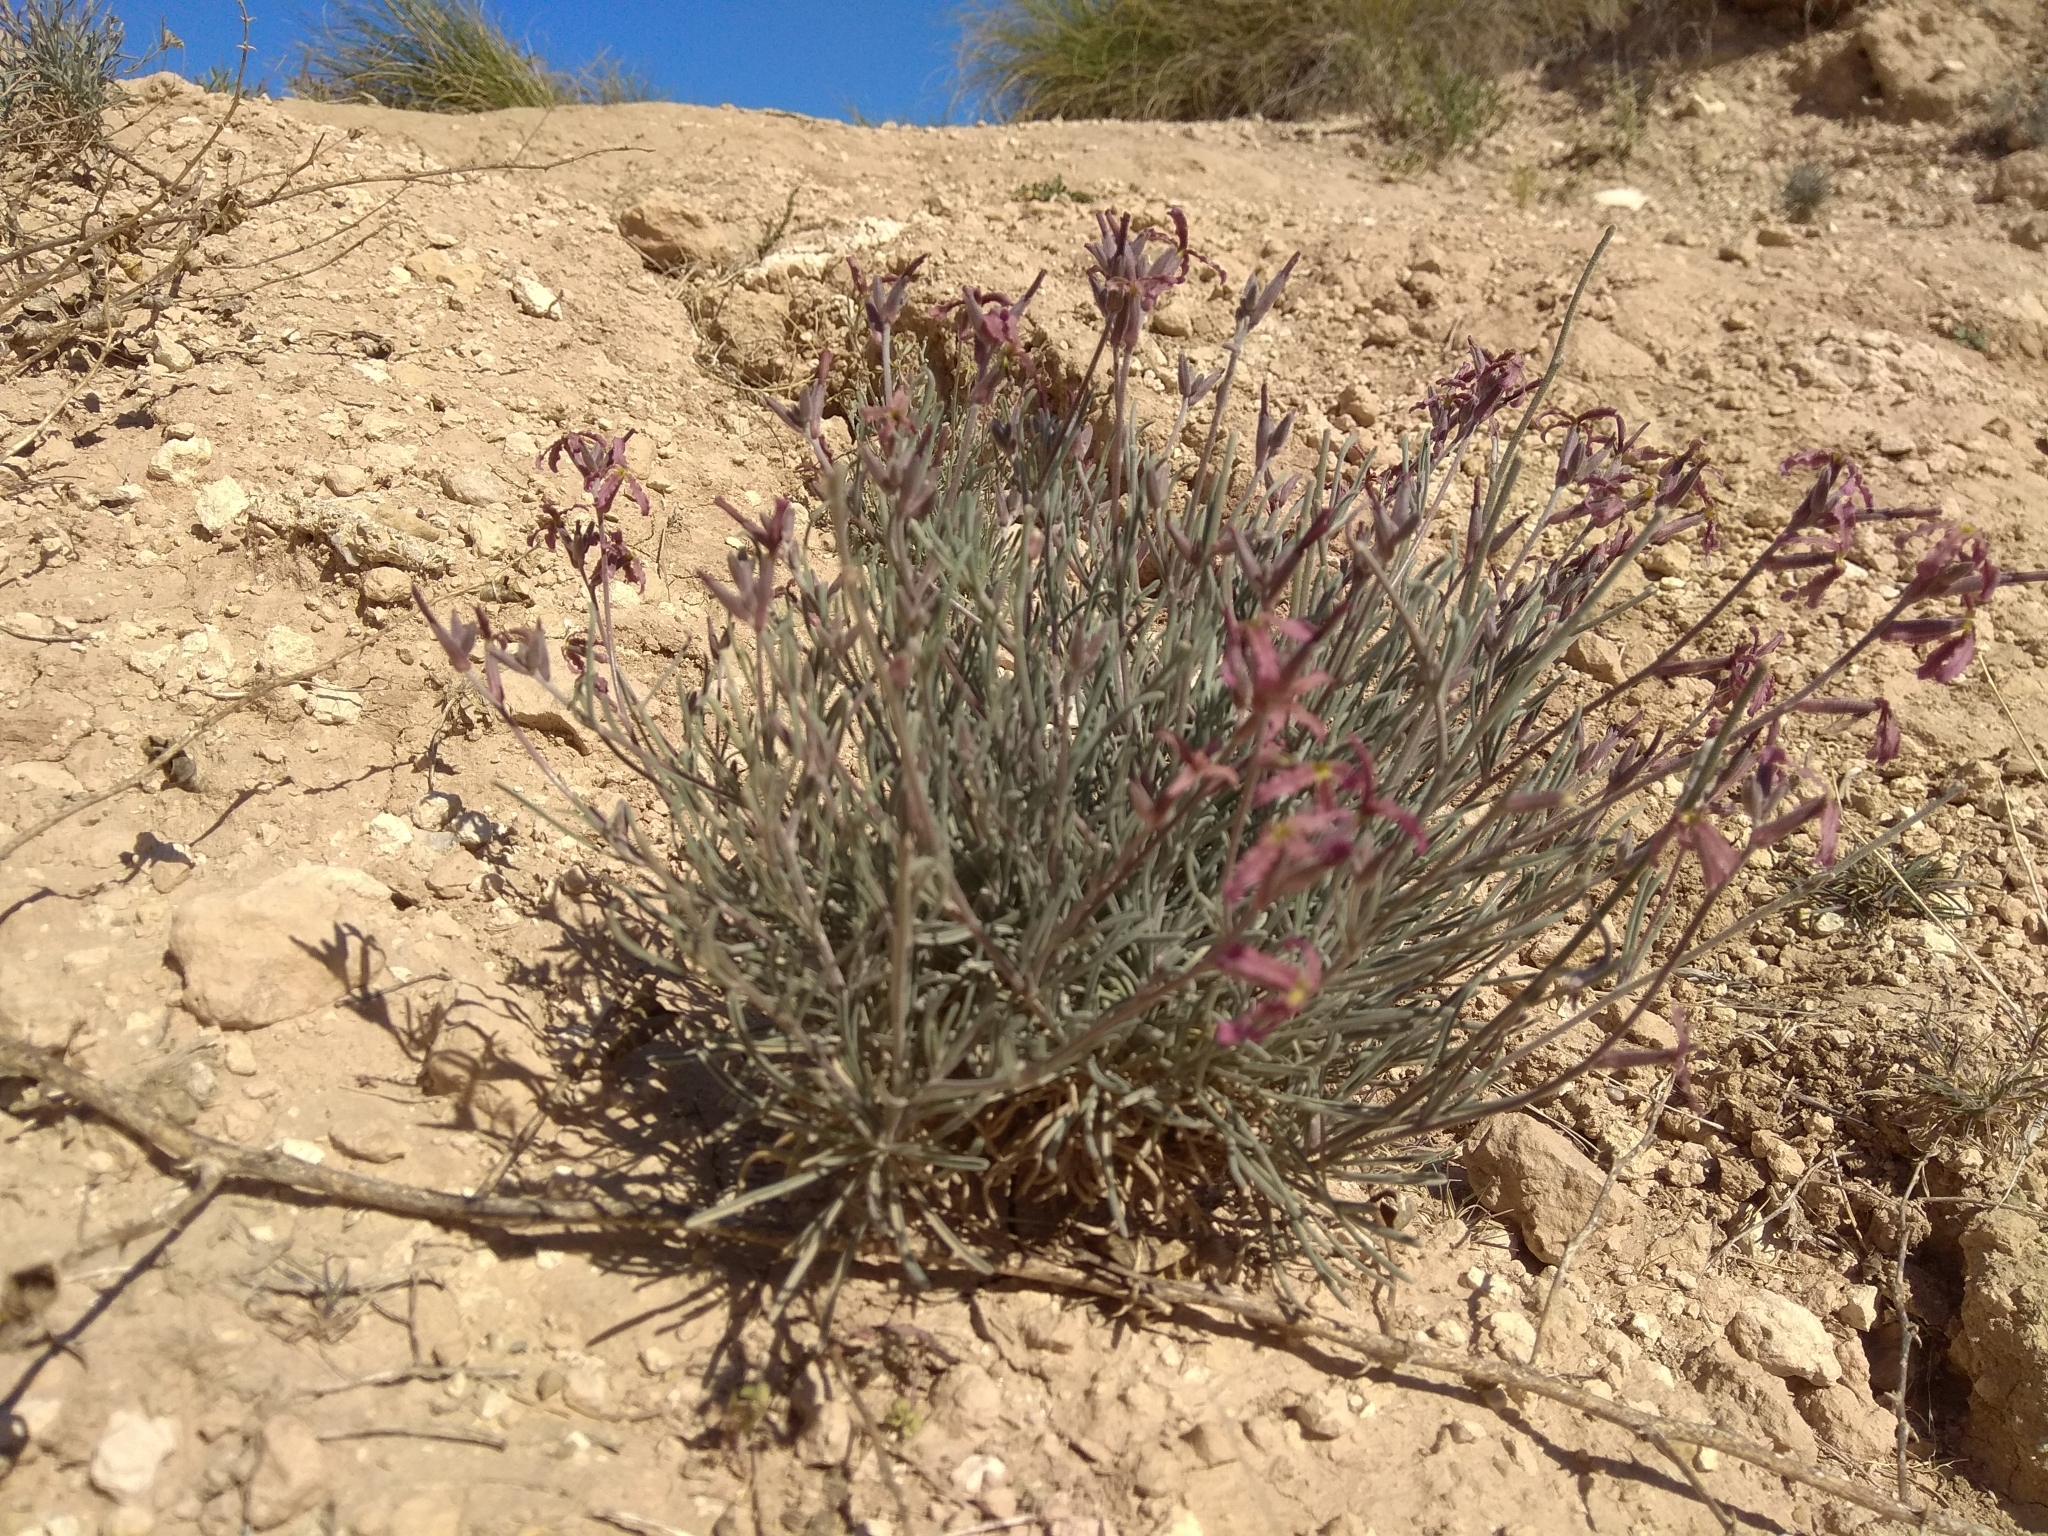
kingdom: Plantae
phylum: Tracheophyta
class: Magnoliopsida
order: Brassicales
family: Brassicaceae
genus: Matthiola
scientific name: Matthiola fruticulosa
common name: Sad stock
